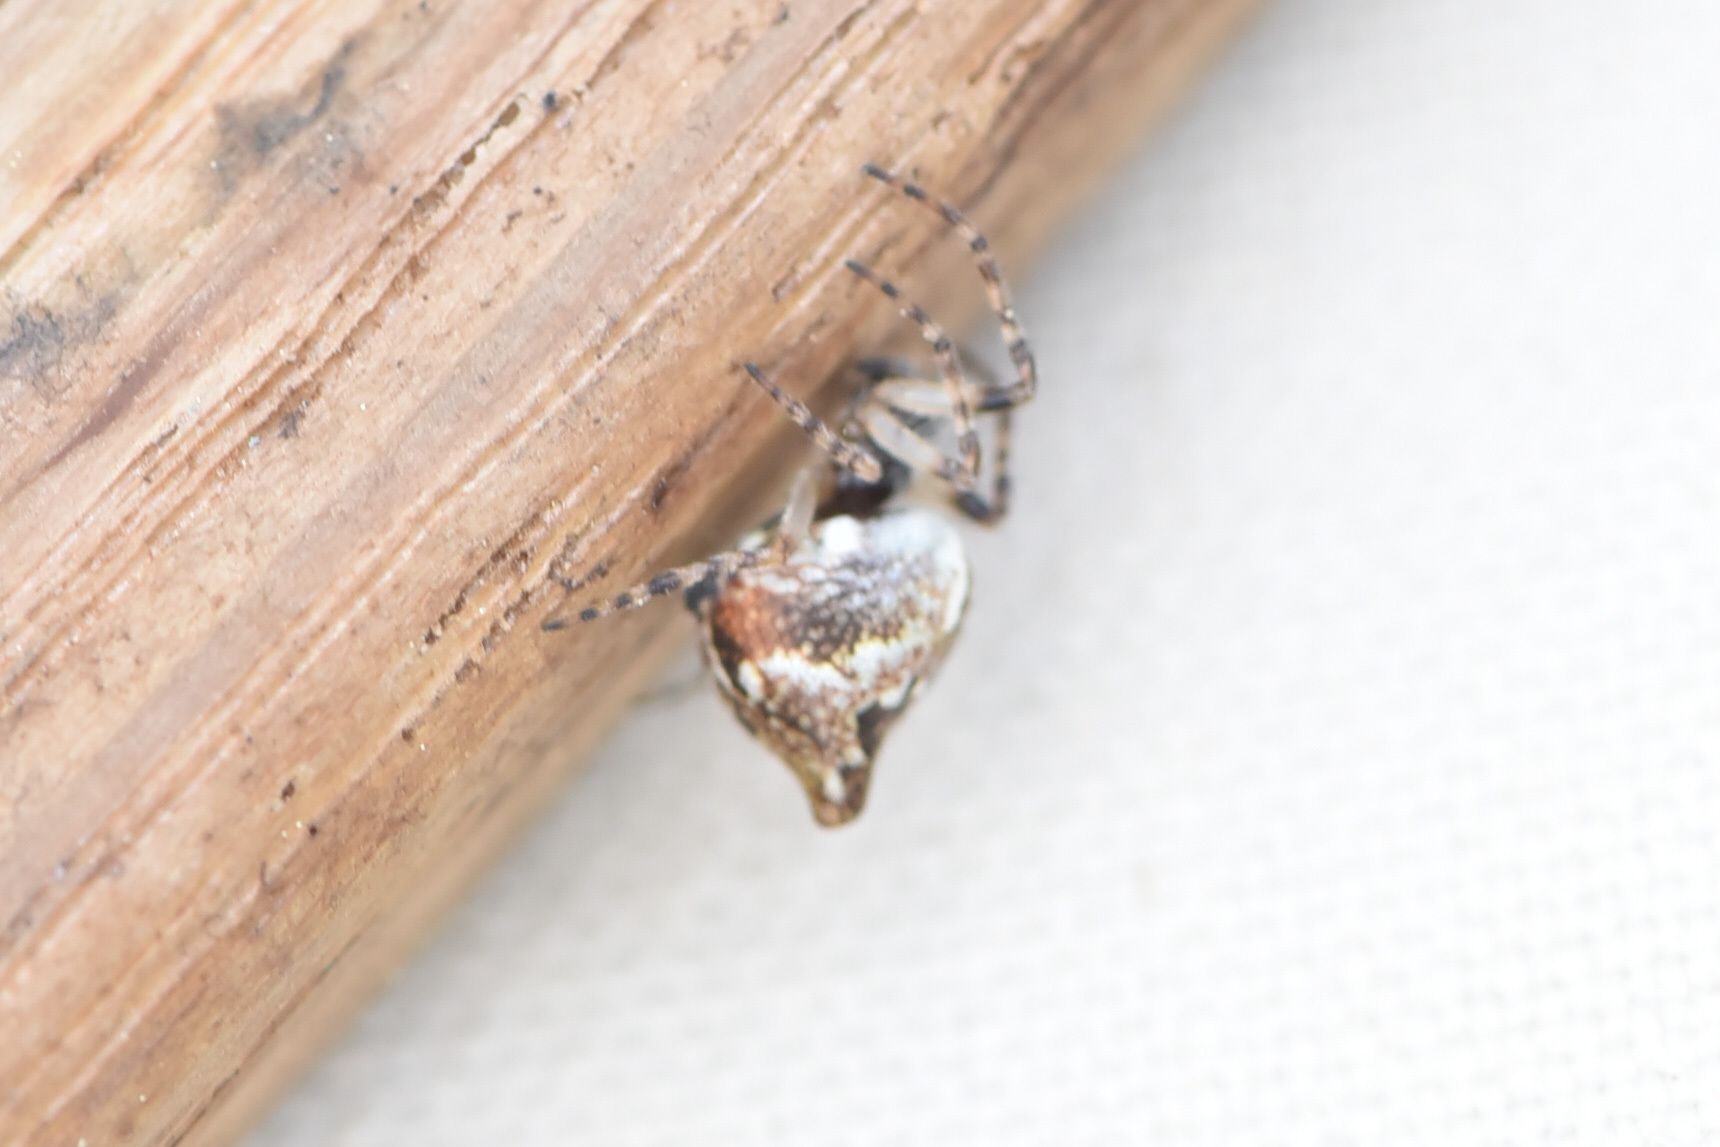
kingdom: Animalia
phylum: Arthropoda
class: Arachnida
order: Araneae
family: Araneidae
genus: Cyclosa
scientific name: Cyclosa conica
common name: Conical trashline orbweaver
